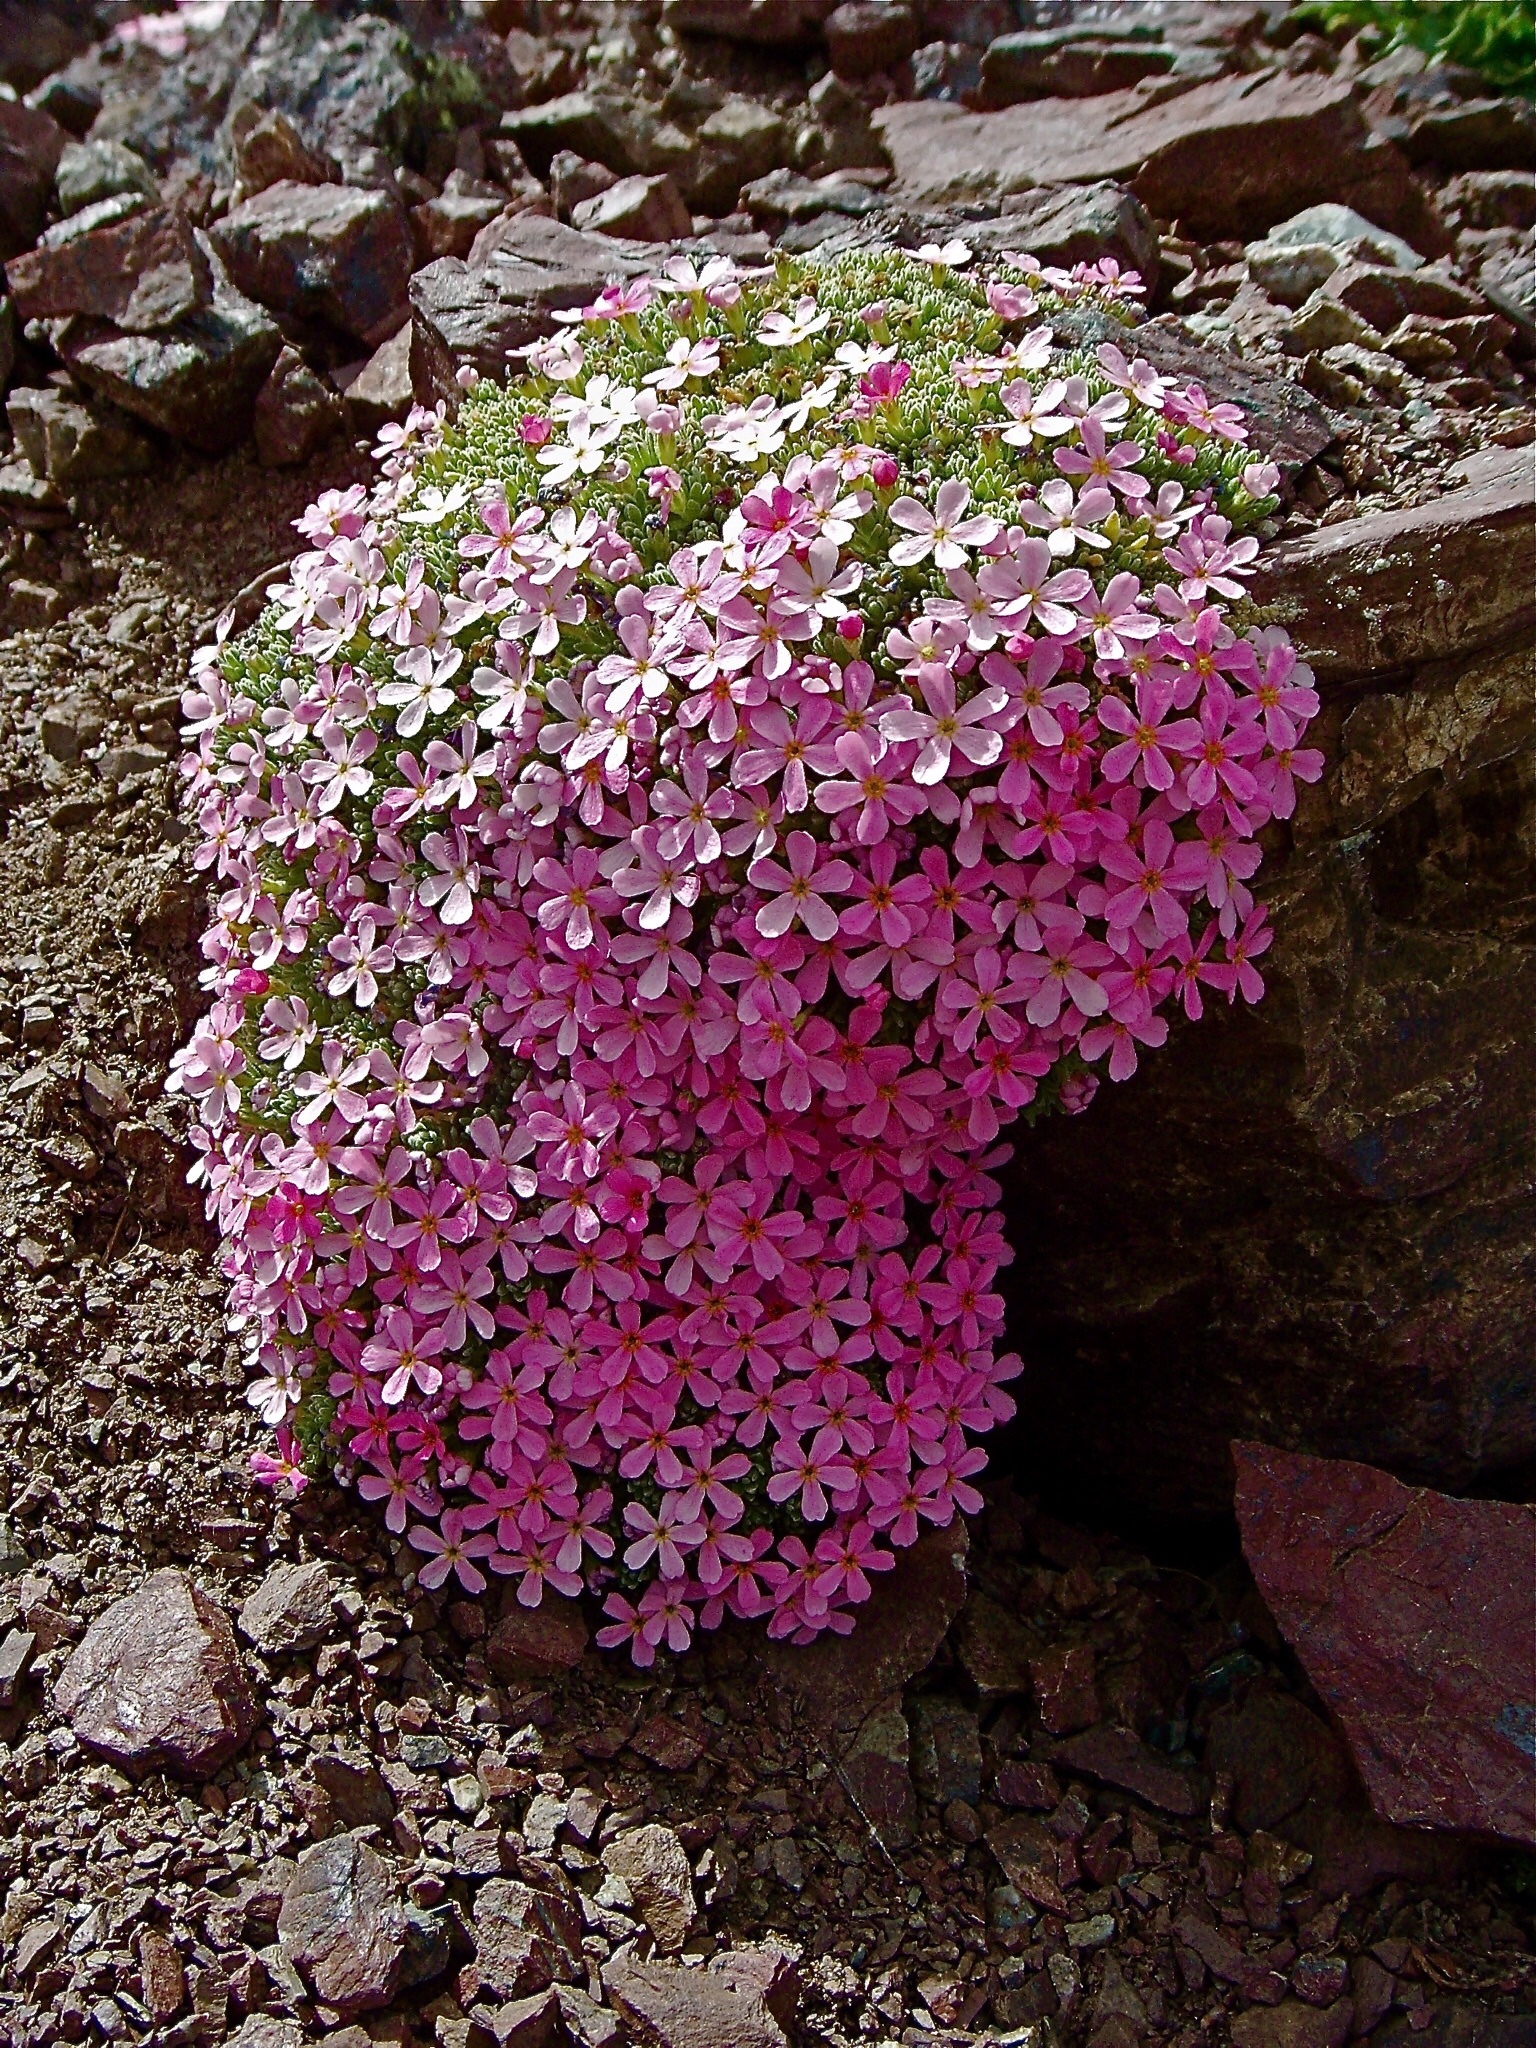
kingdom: Plantae
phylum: Tracheophyta
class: Magnoliopsida
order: Ericales
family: Primulaceae
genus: Androsace
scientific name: Androsace alpina
